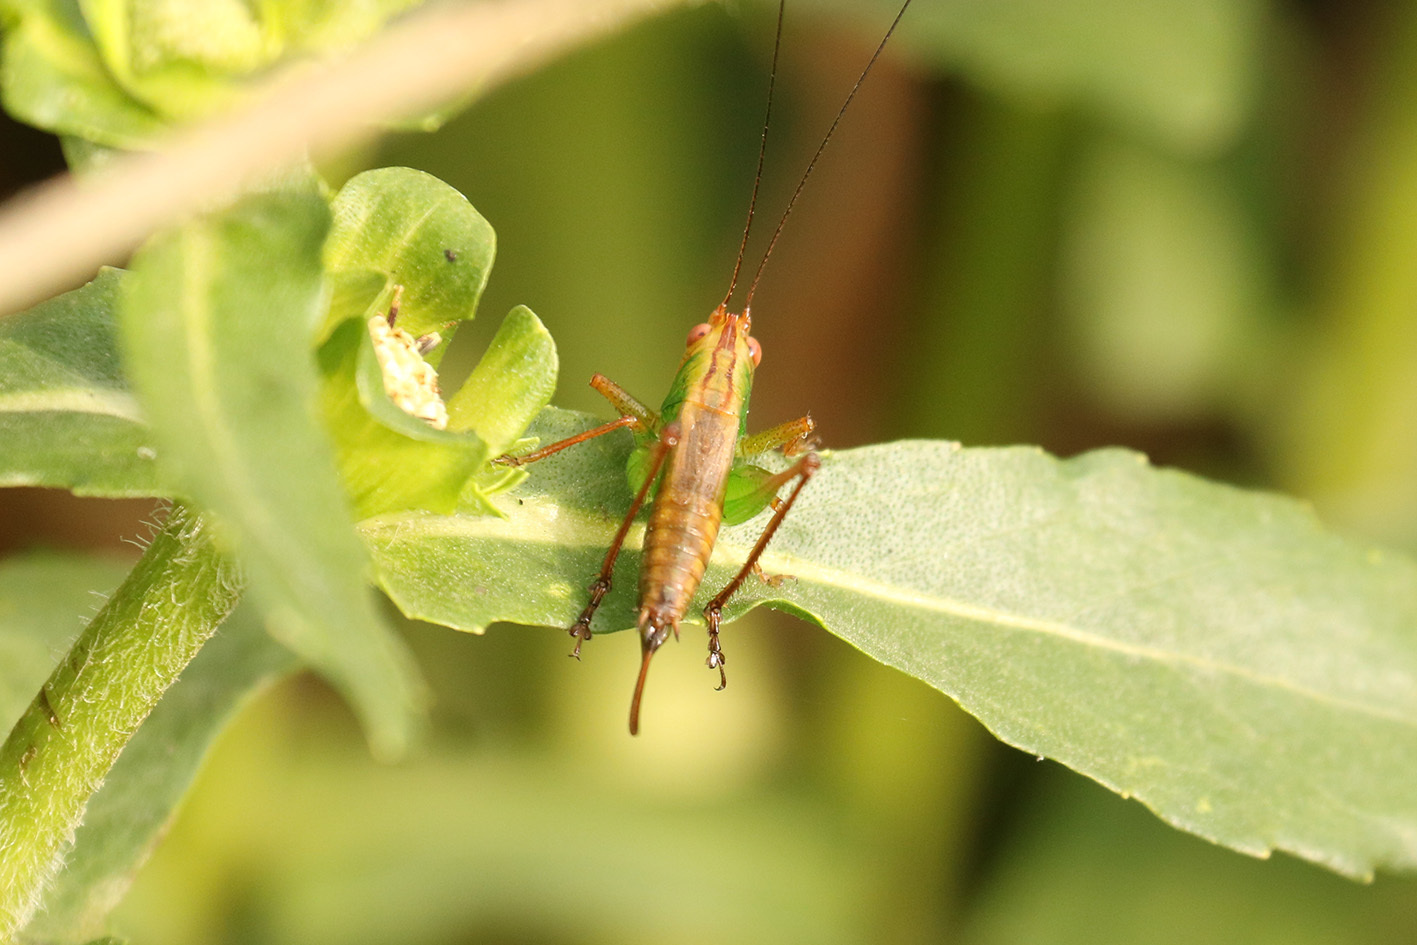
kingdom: Animalia
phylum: Arthropoda
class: Insecta
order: Orthoptera
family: Tettigoniidae
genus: Conocephalus
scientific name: Conocephalus cinnamonifrons
